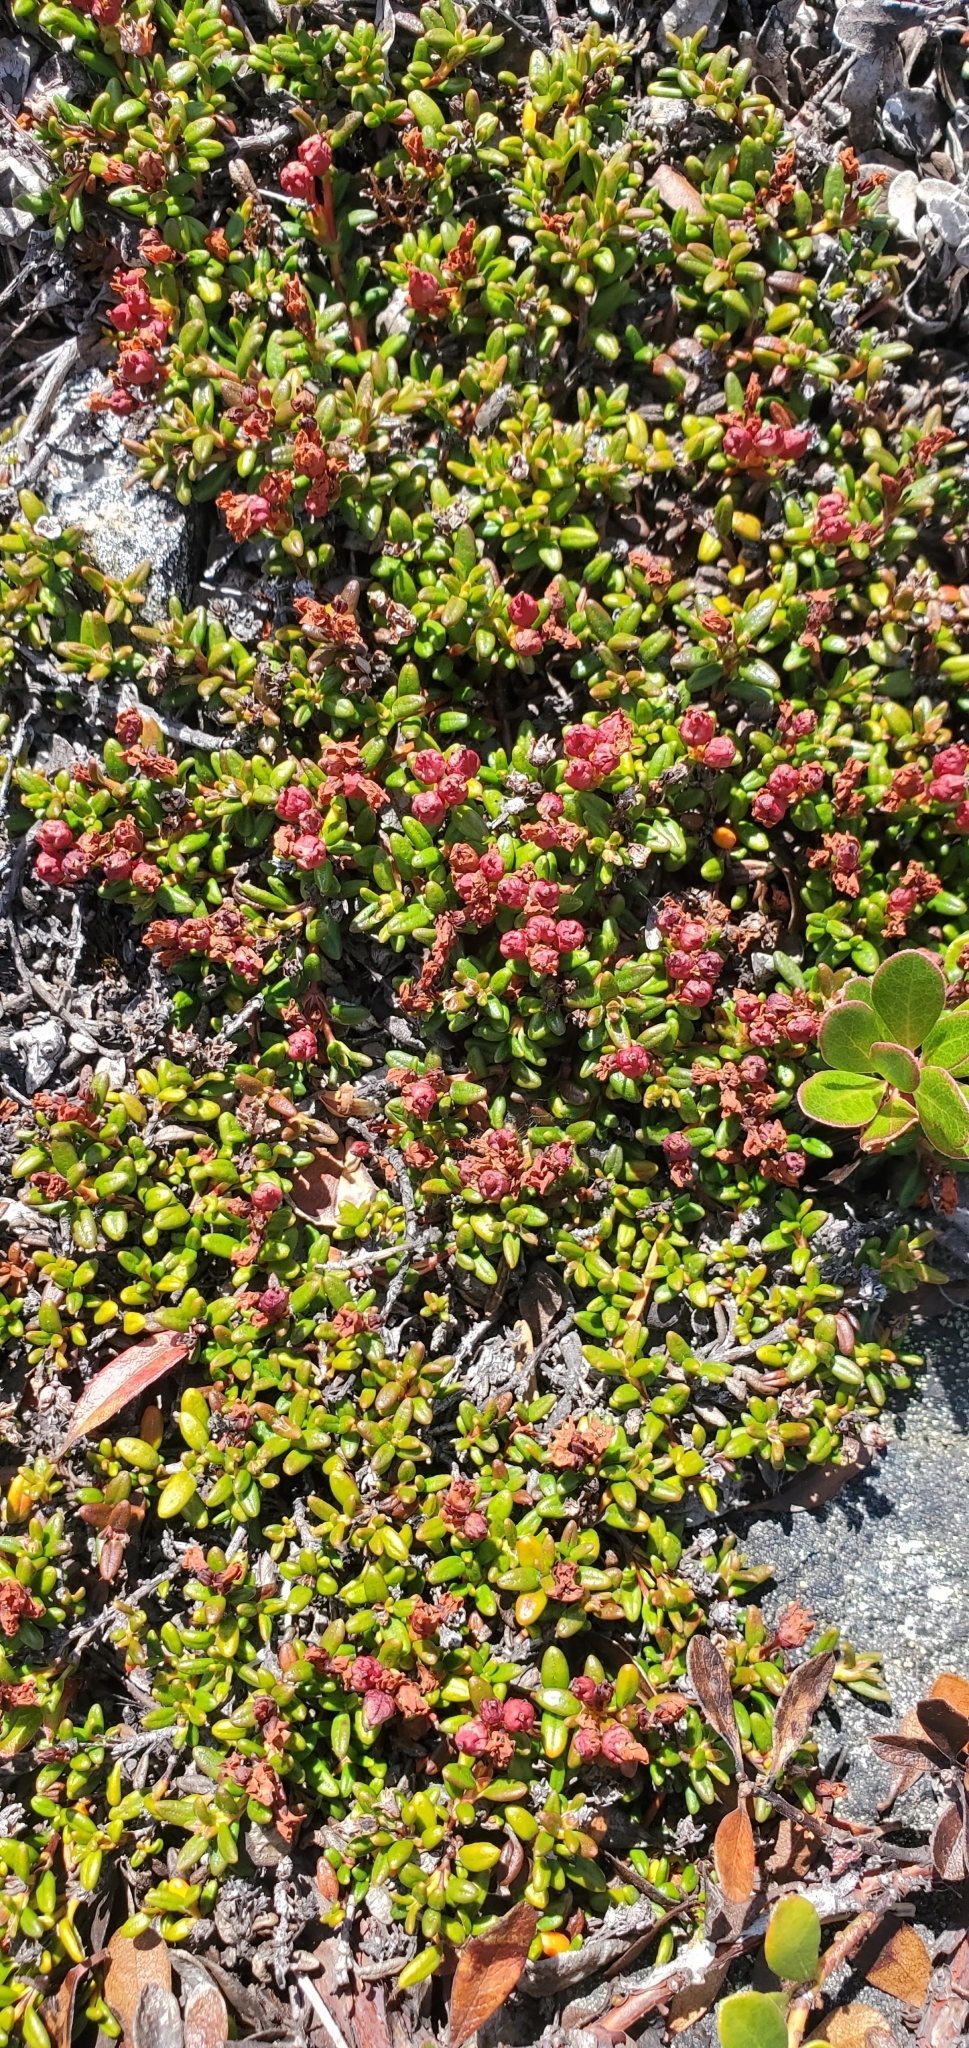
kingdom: Plantae
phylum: Tracheophyta
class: Magnoliopsida
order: Ericales
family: Ericaceae
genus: Kalmia
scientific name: Kalmia procumbens
